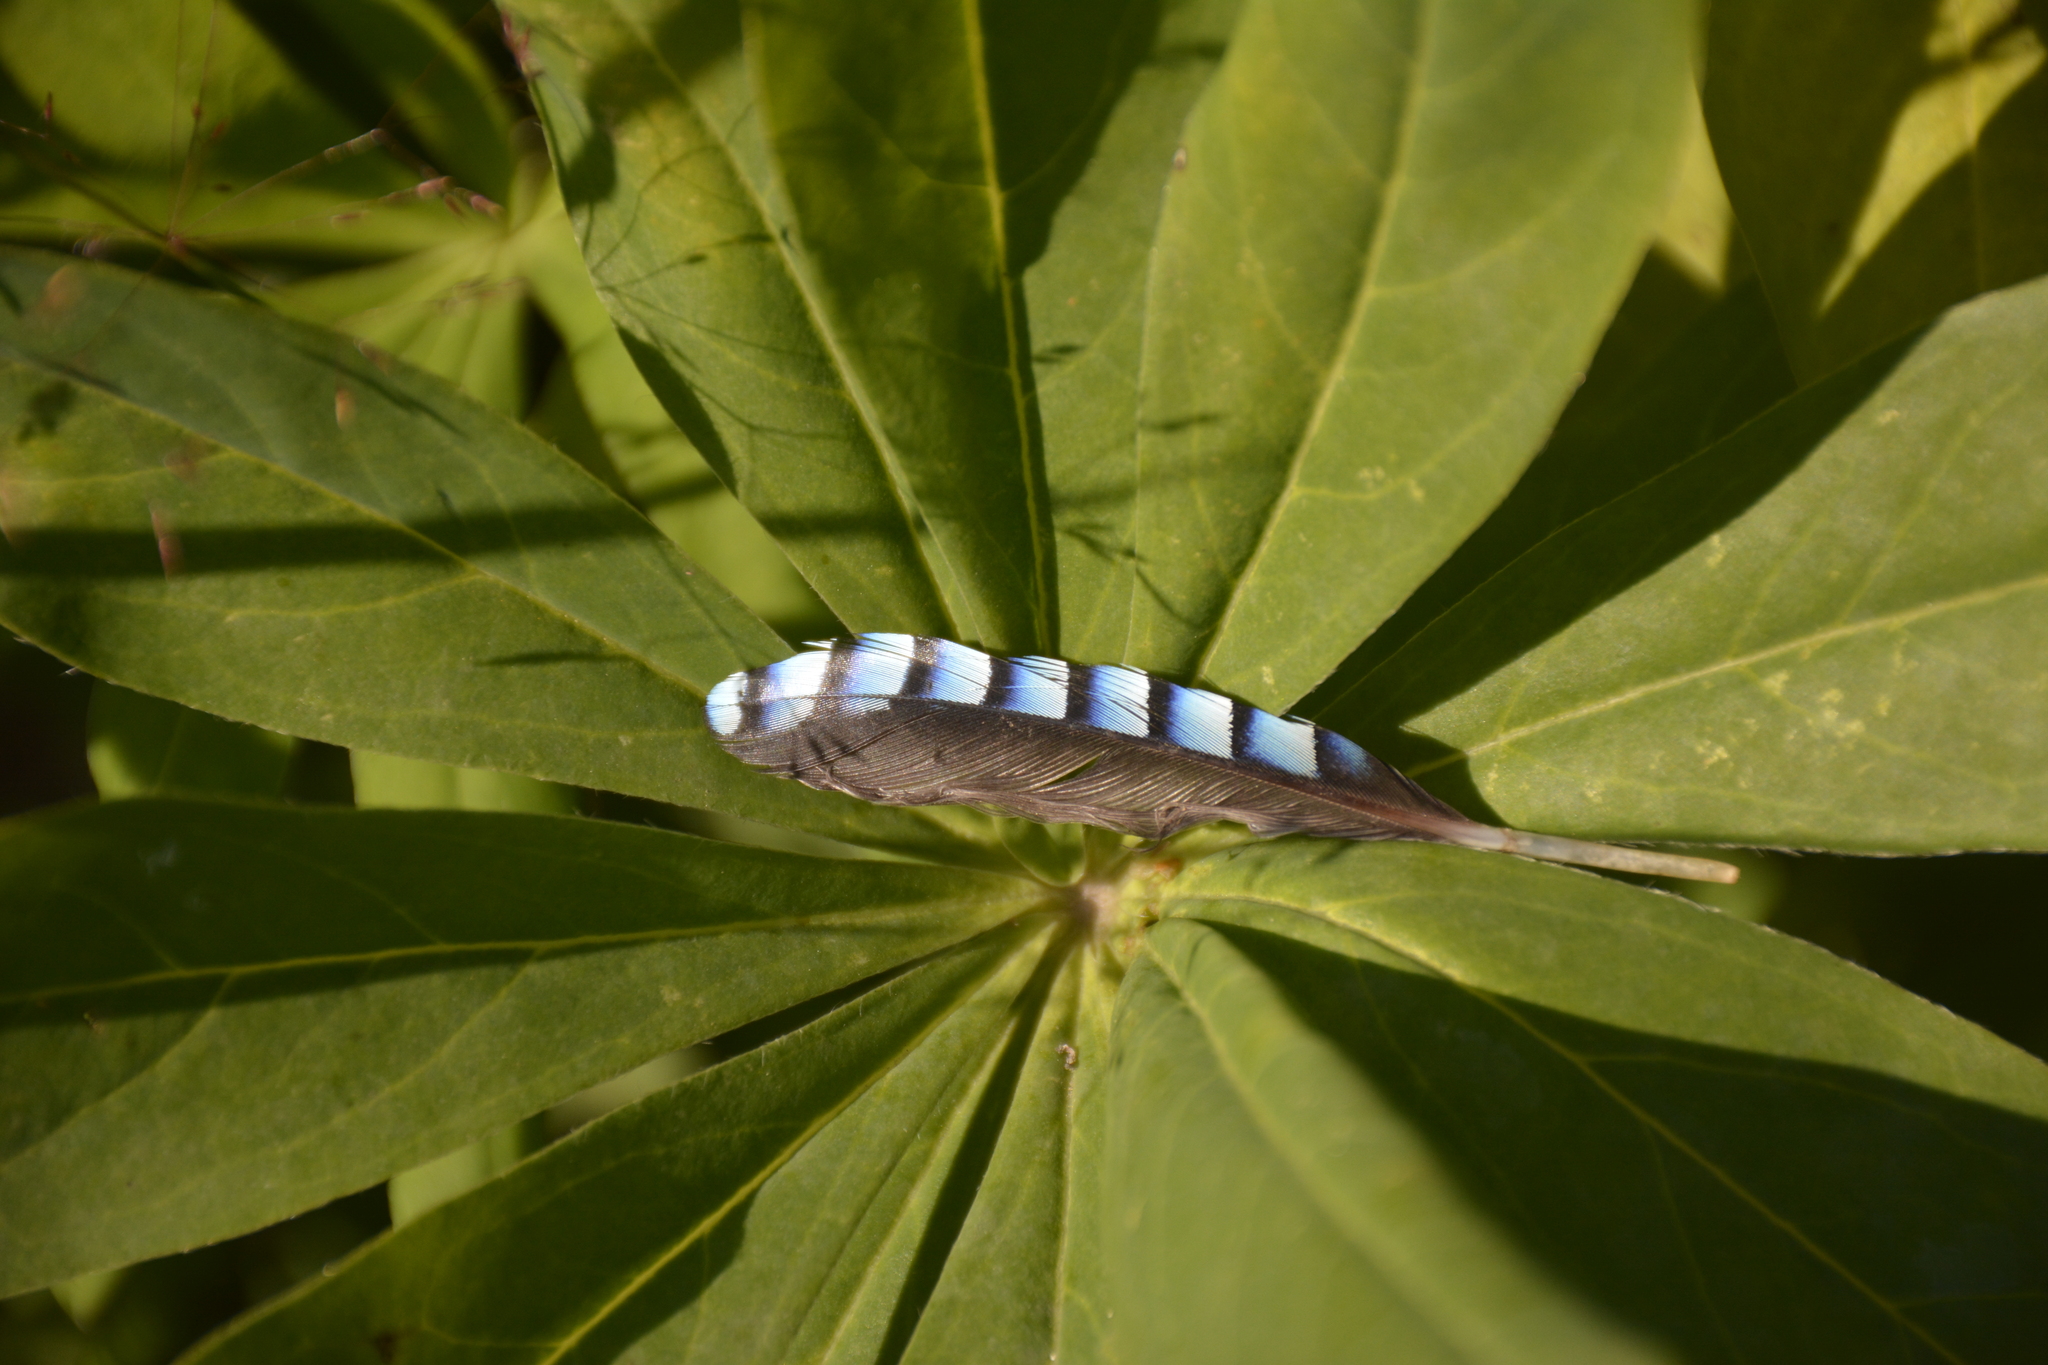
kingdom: Animalia
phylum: Chordata
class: Aves
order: Passeriformes
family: Corvidae
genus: Garrulus
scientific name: Garrulus glandarius
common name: Eurasian jay
